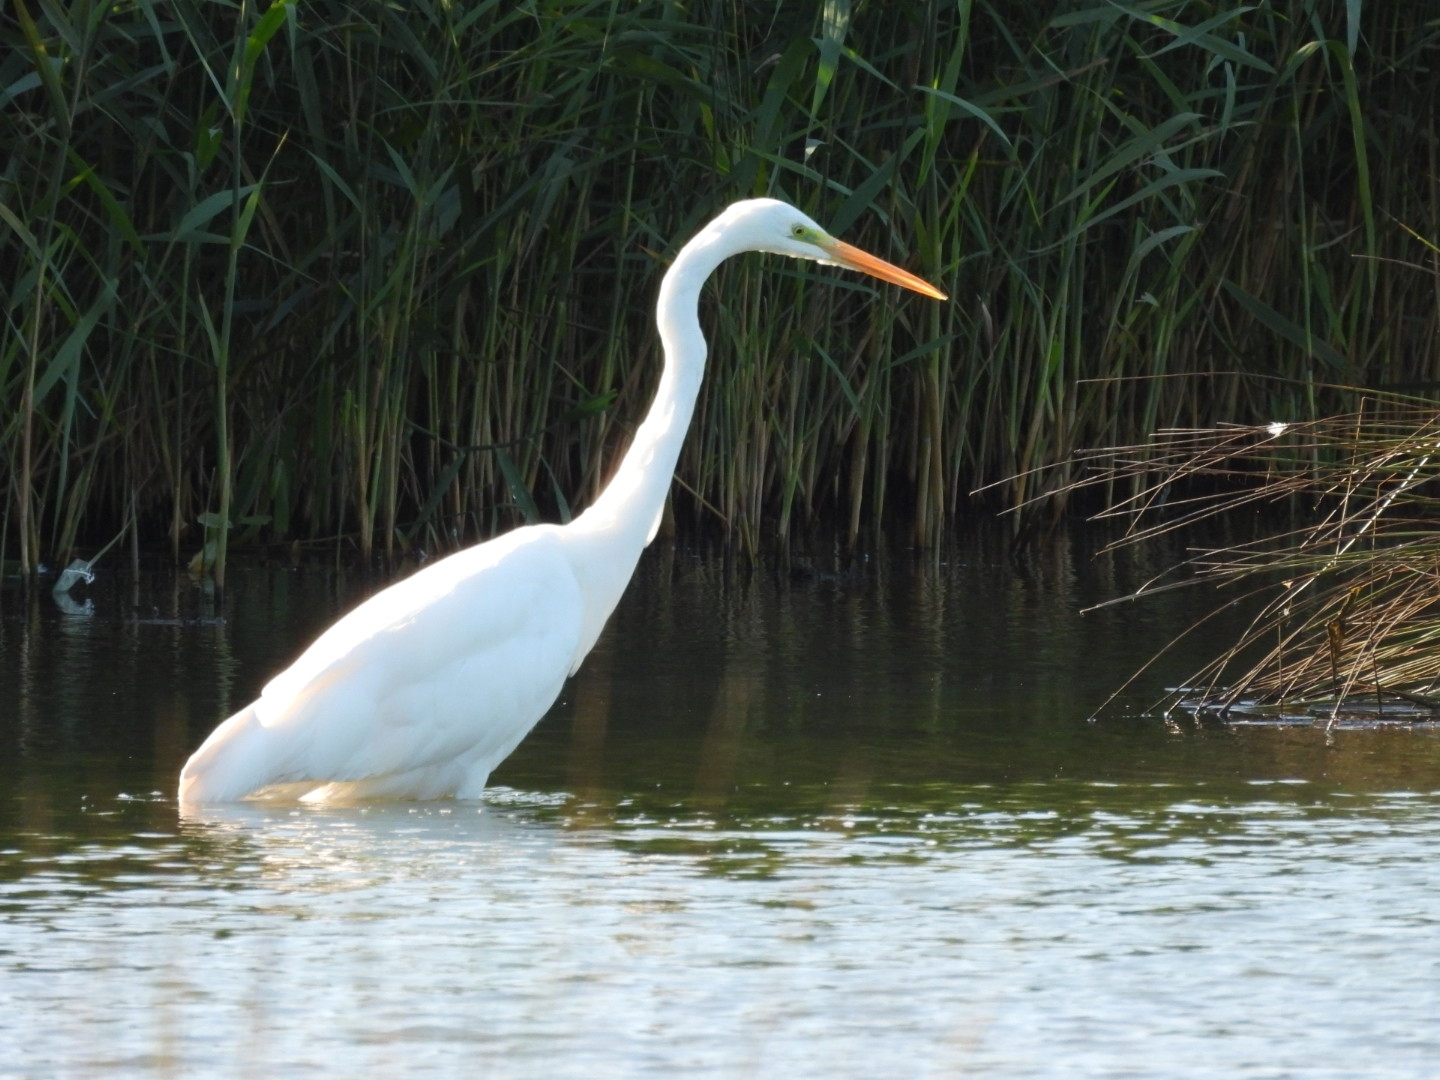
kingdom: Animalia
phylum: Chordata
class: Aves
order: Pelecaniformes
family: Ardeidae
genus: Ardea
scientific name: Ardea alba
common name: Great egret
